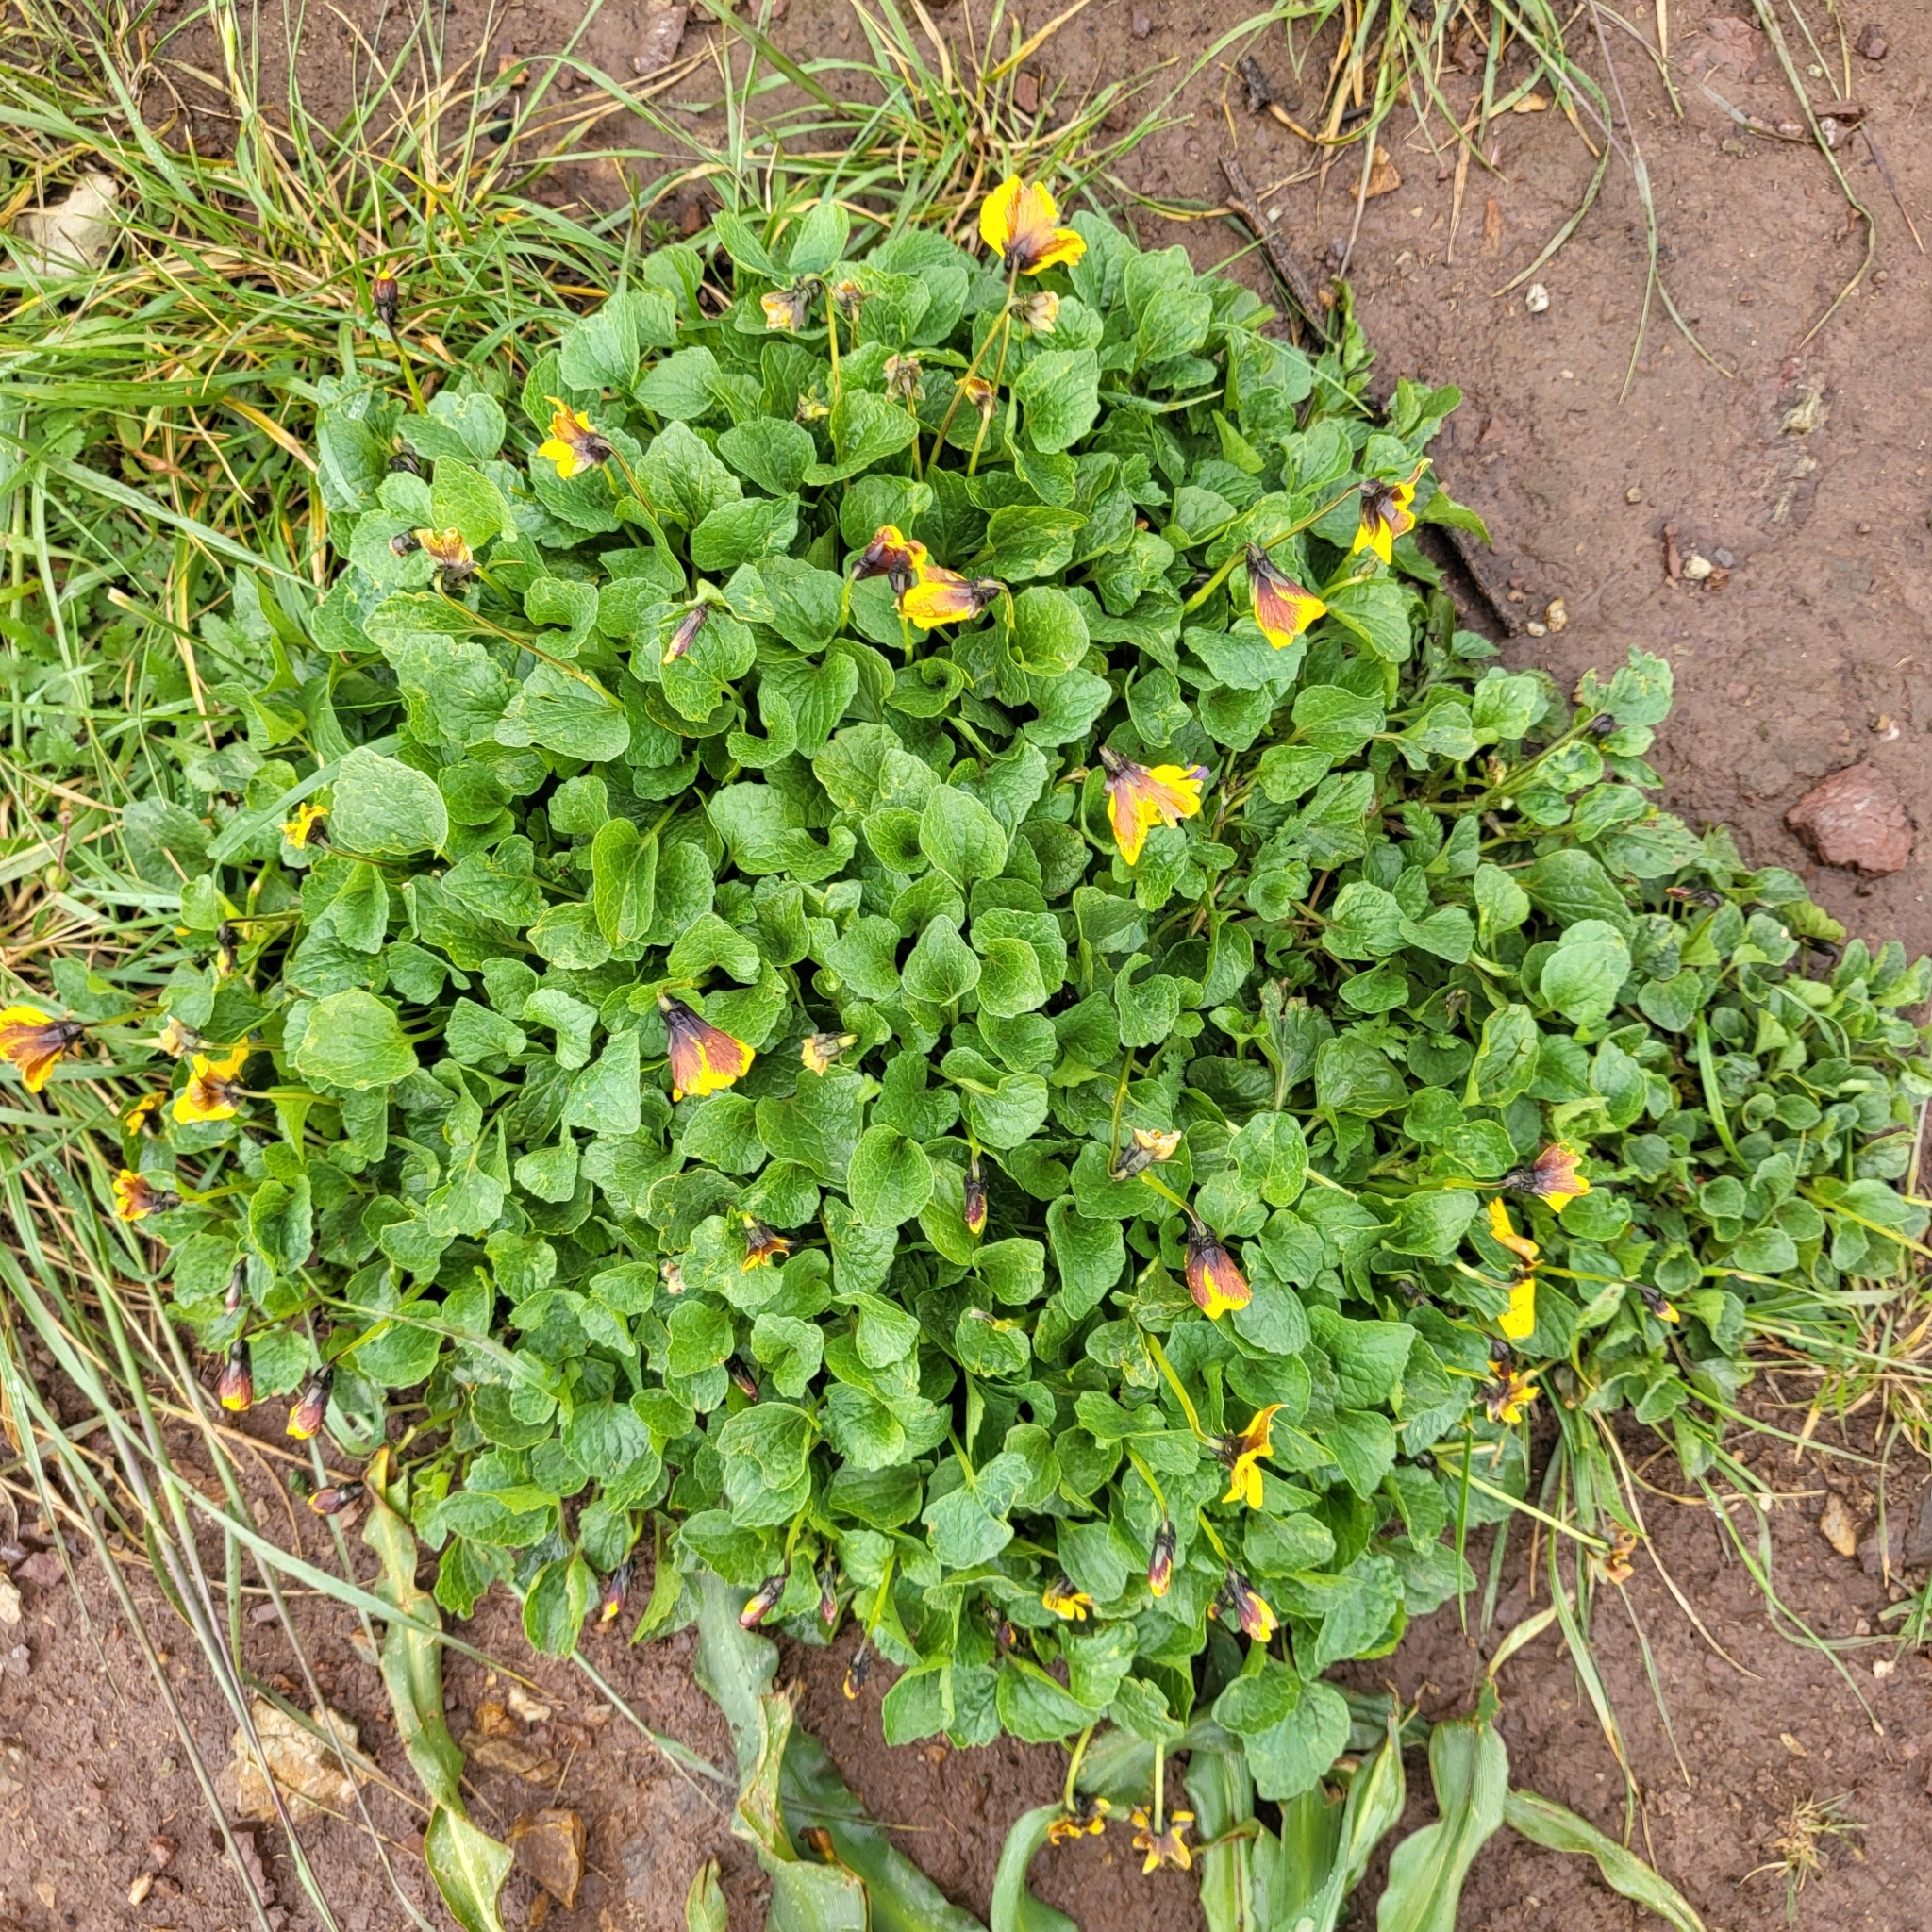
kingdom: Plantae
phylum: Tracheophyta
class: Magnoliopsida
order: Malpighiales
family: Violaceae
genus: Viola
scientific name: Viola pedunculata
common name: California golden violet
